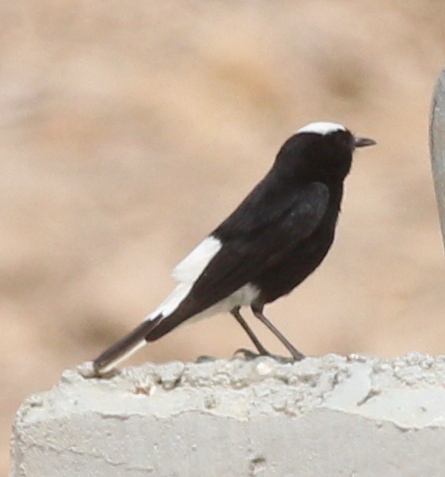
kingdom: Animalia
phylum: Chordata
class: Aves
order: Passeriformes
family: Muscicapidae
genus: Oenanthe
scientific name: Oenanthe leucopyga
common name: White-crowned wheatear
